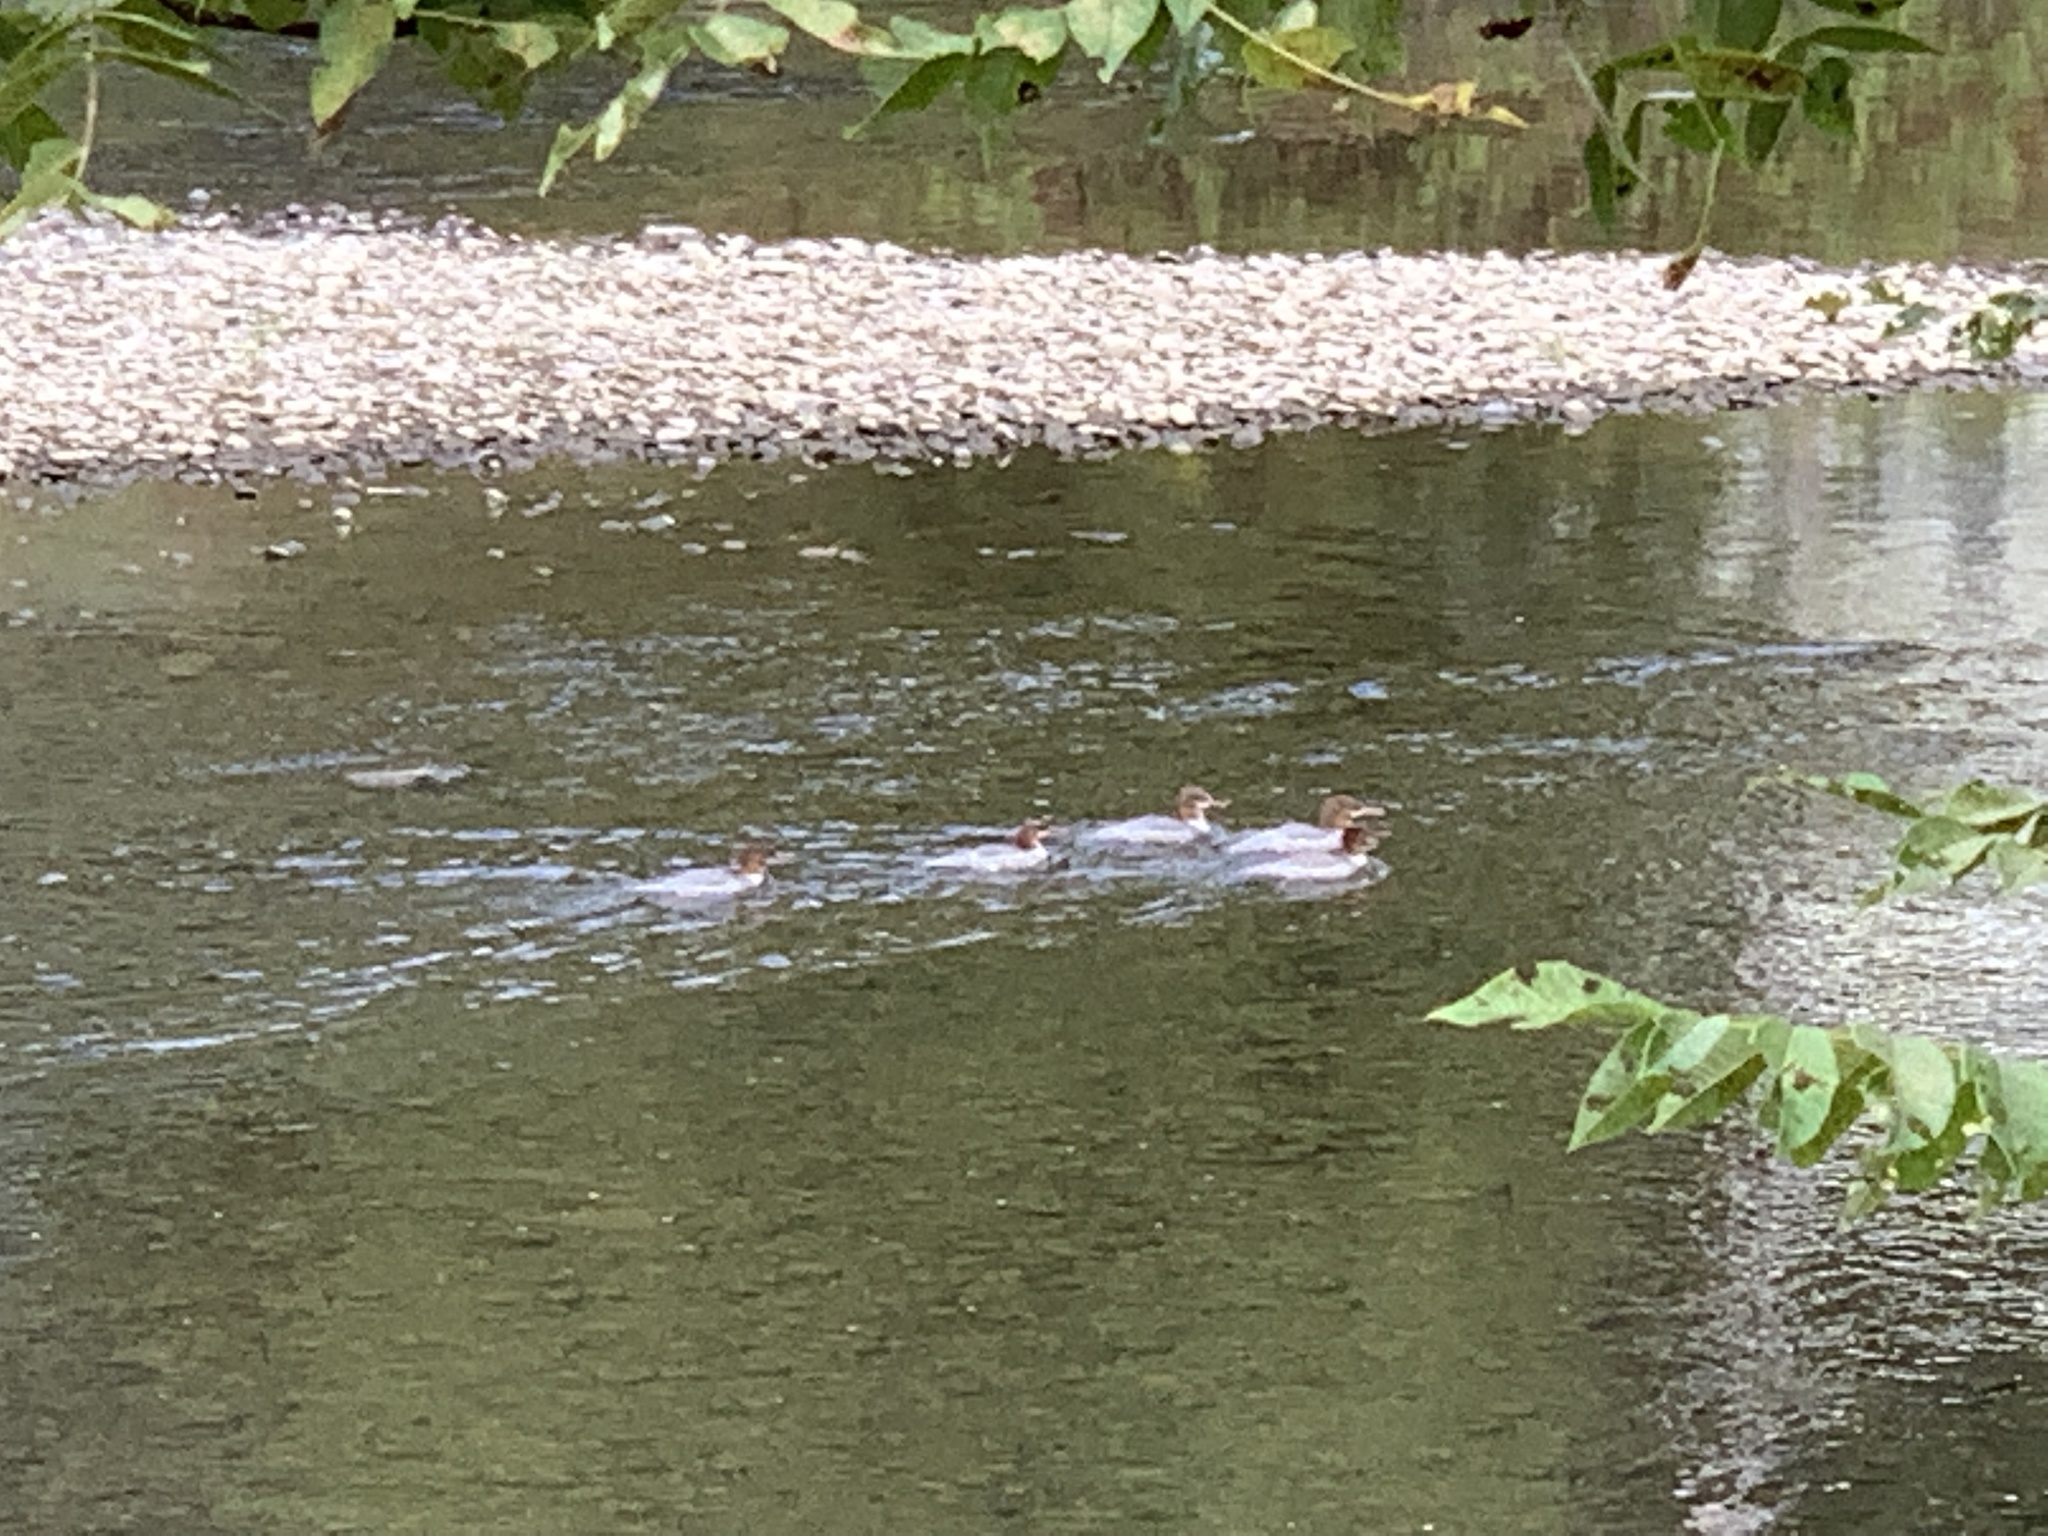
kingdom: Animalia
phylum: Chordata
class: Aves
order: Anseriformes
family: Anatidae
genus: Mergus
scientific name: Mergus merganser
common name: Common merganser
